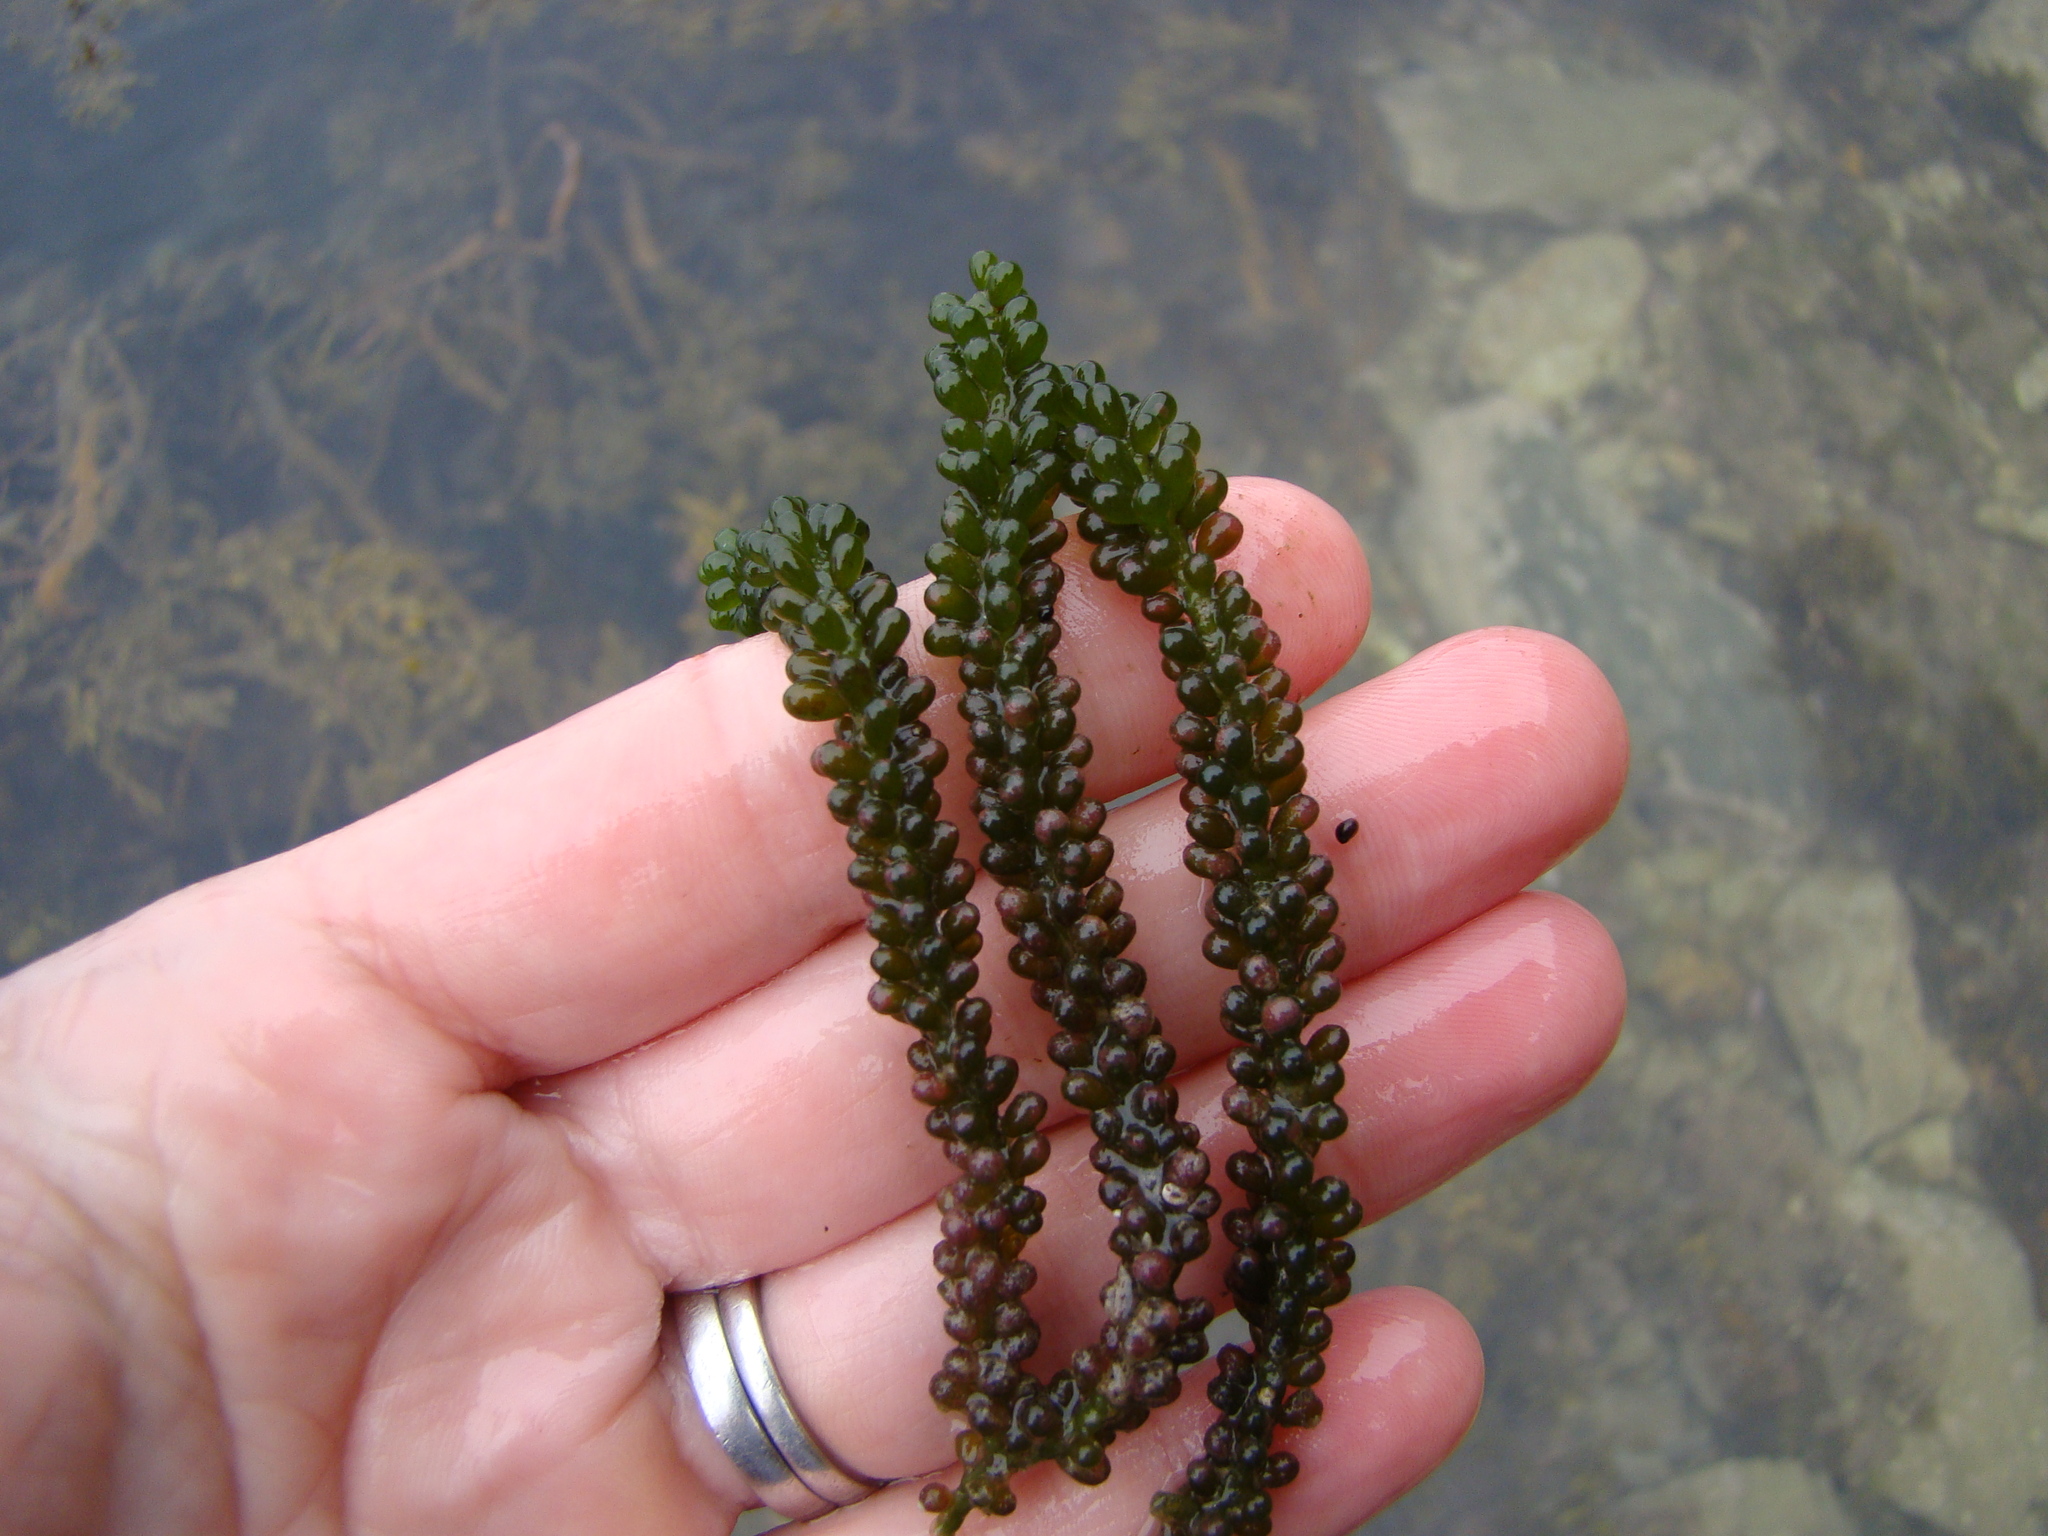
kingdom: Plantae
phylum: Chlorophyta
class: Ulvophyceae
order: Bryopsidales
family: Caulerpaceae
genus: Caulerpa
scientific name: Caulerpa geminata
